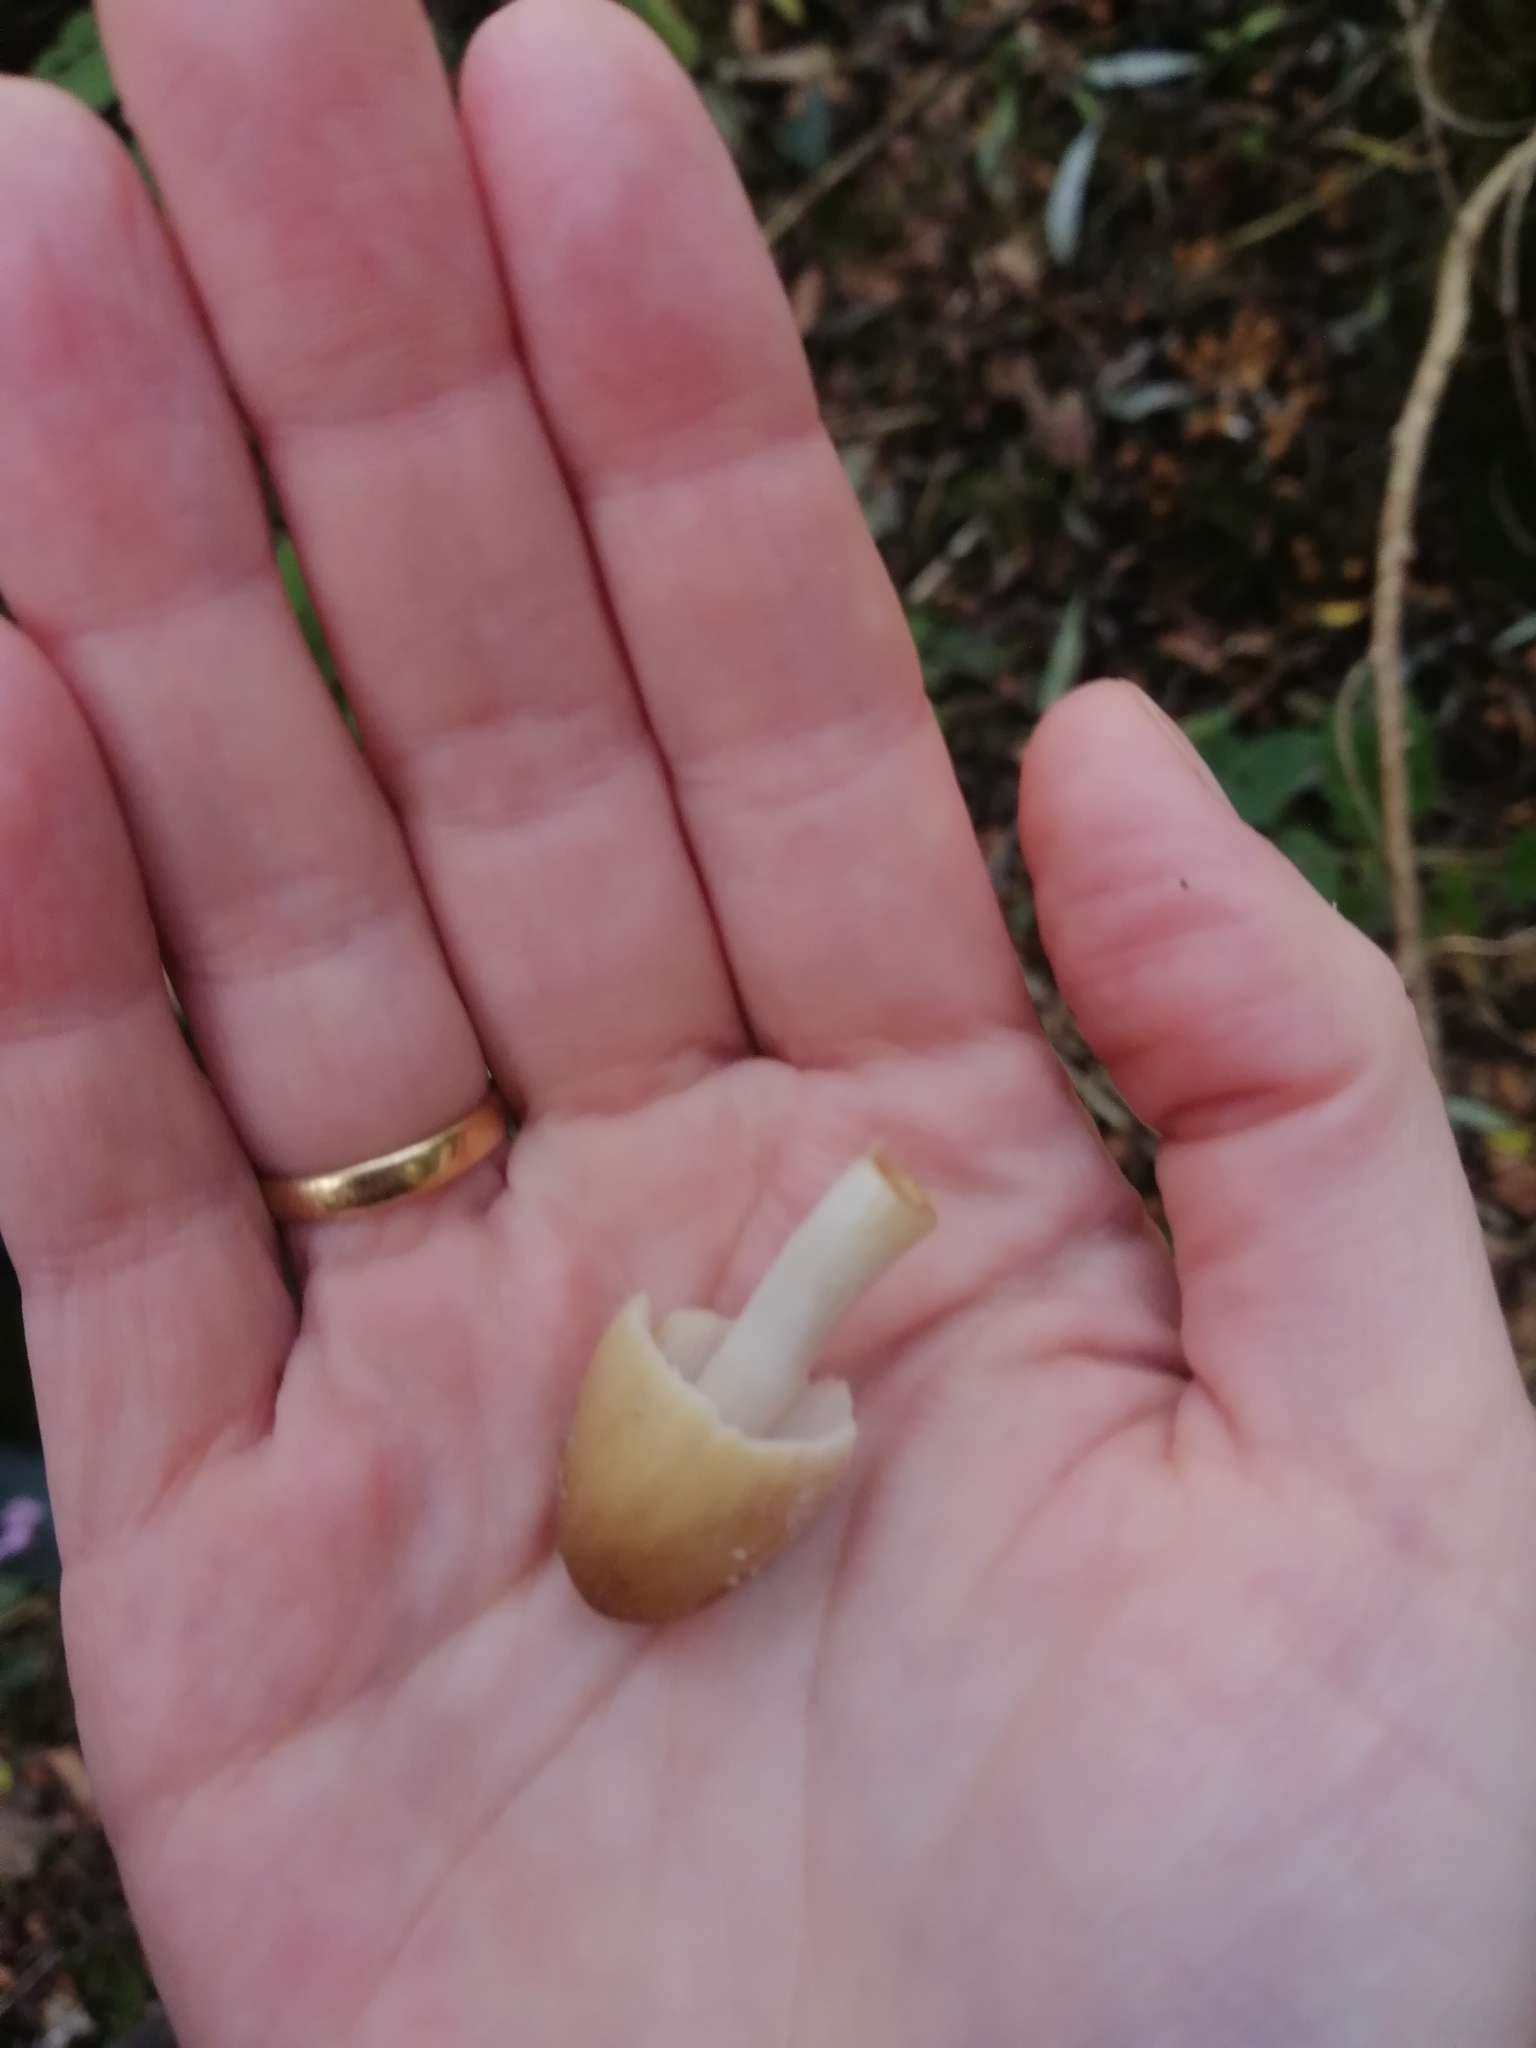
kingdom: Fungi
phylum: Basidiomycota
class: Agaricomycetes
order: Agaricales
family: Psathyrellaceae
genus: Coprinellus
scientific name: Coprinellus micaceus
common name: Glistening ink-cap
